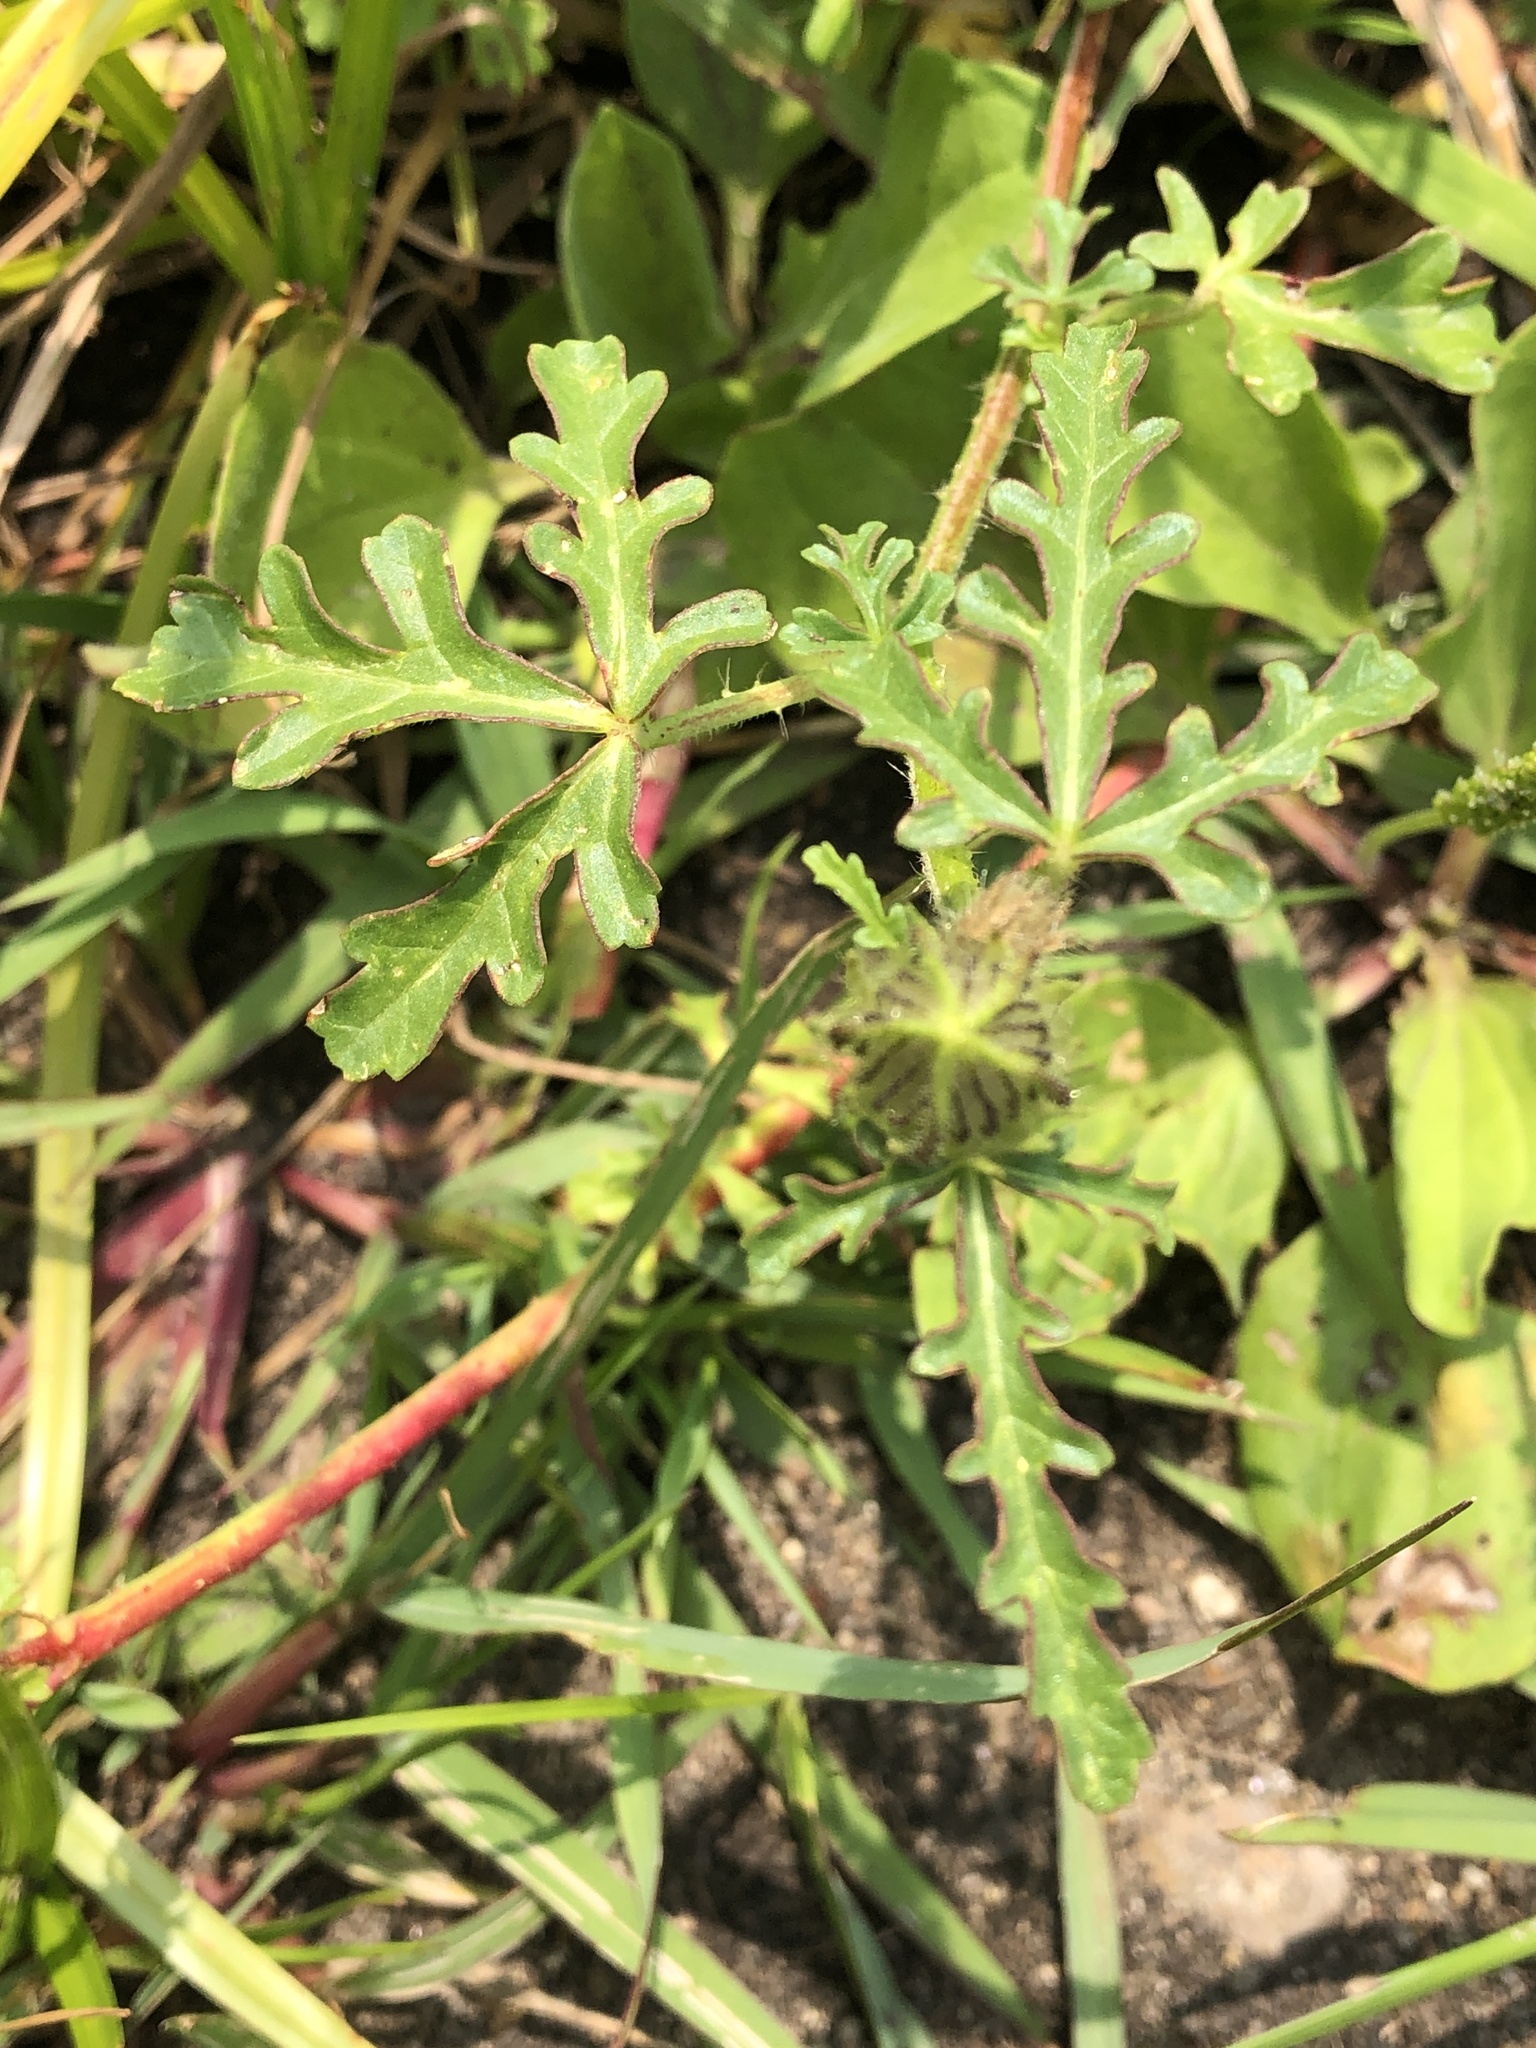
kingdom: Plantae
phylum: Tracheophyta
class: Magnoliopsida
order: Malvales
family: Malvaceae
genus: Hibiscus
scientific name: Hibiscus trionum
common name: Bladder ketmia
